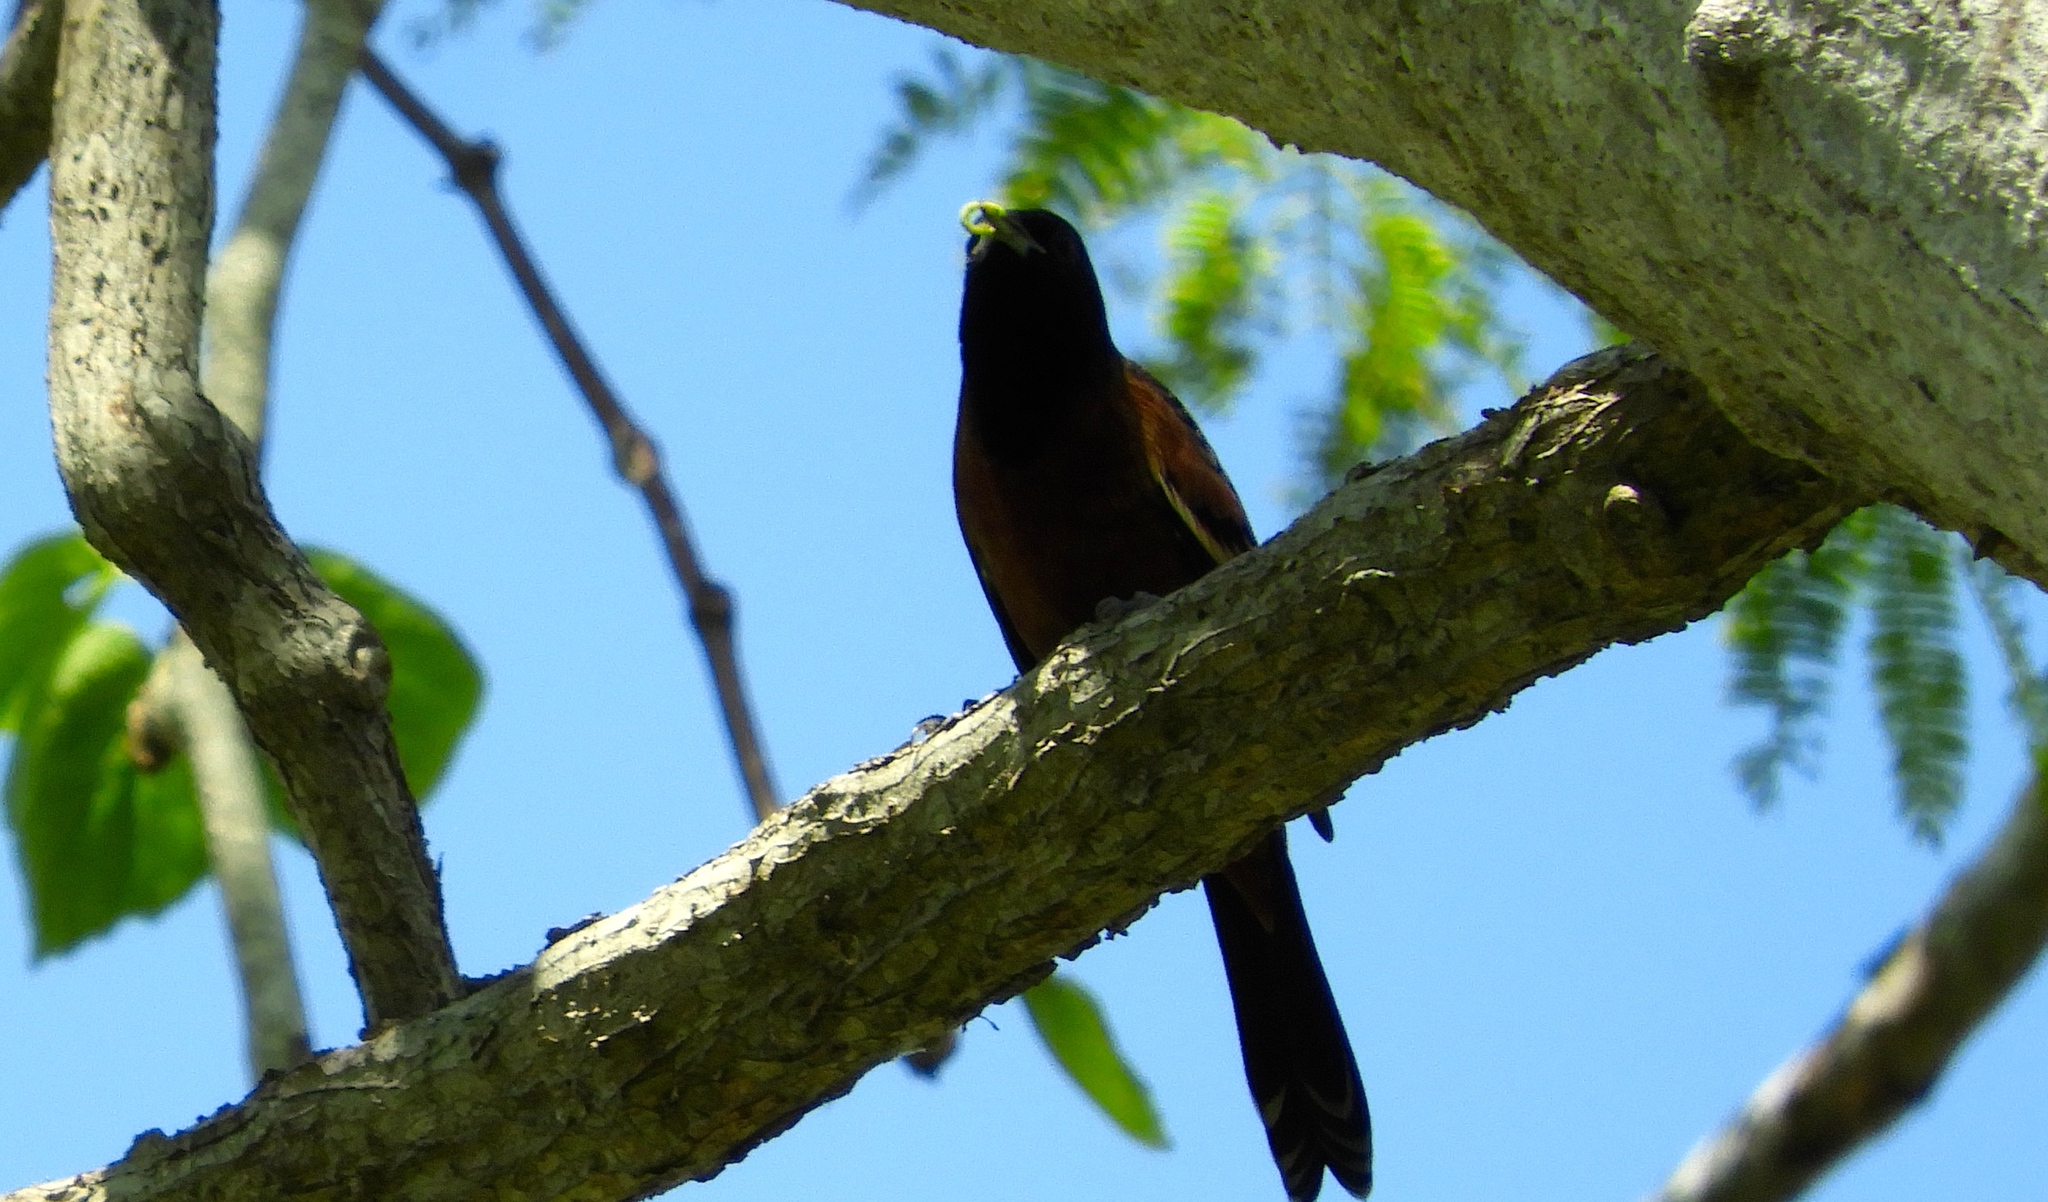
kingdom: Animalia
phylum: Chordata
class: Aves
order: Passeriformes
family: Icteridae
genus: Icterus
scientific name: Icterus spurius
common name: Orchard oriole
